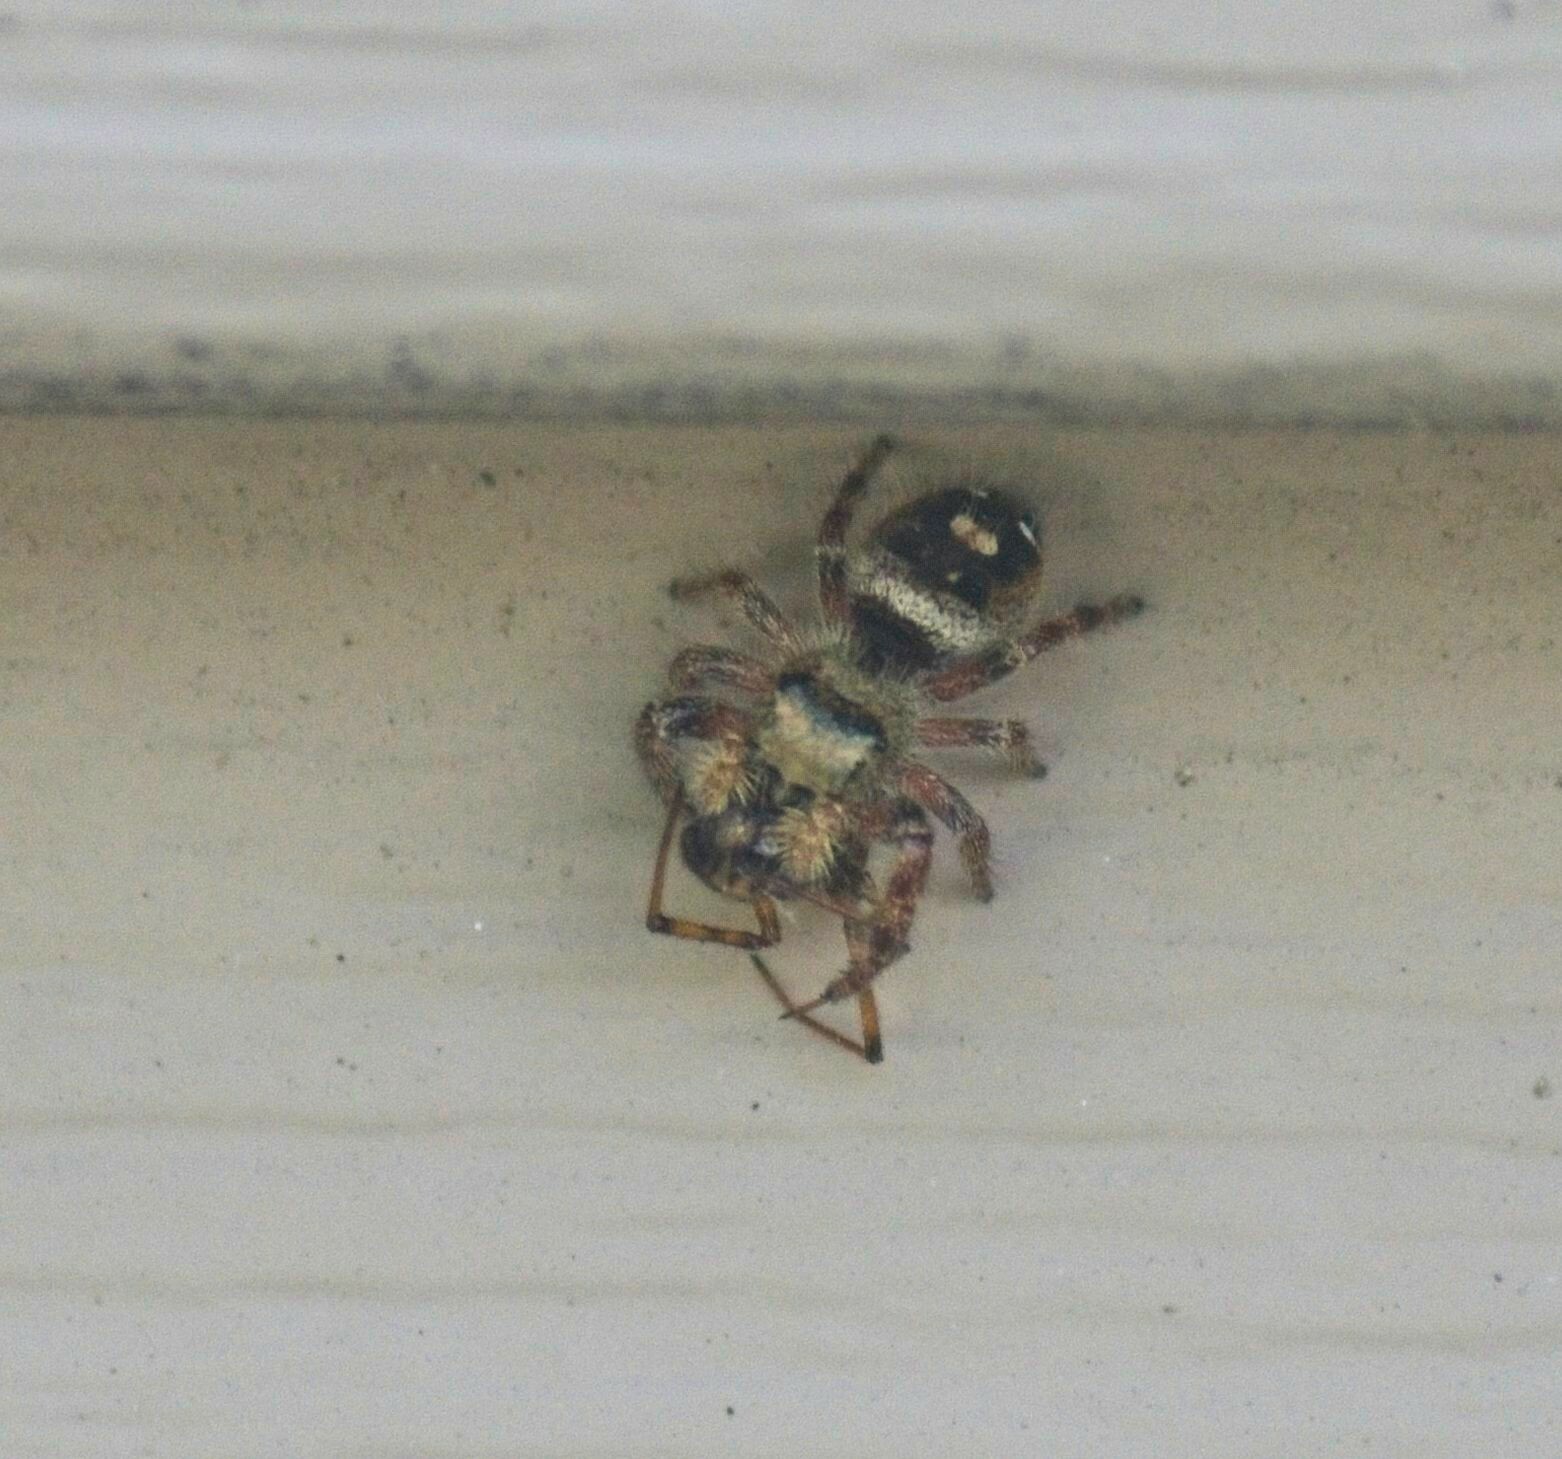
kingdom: Animalia
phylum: Arthropoda
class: Arachnida
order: Araneae
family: Salticidae
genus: Phidippus
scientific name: Phidippus audax
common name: Bold jumper
